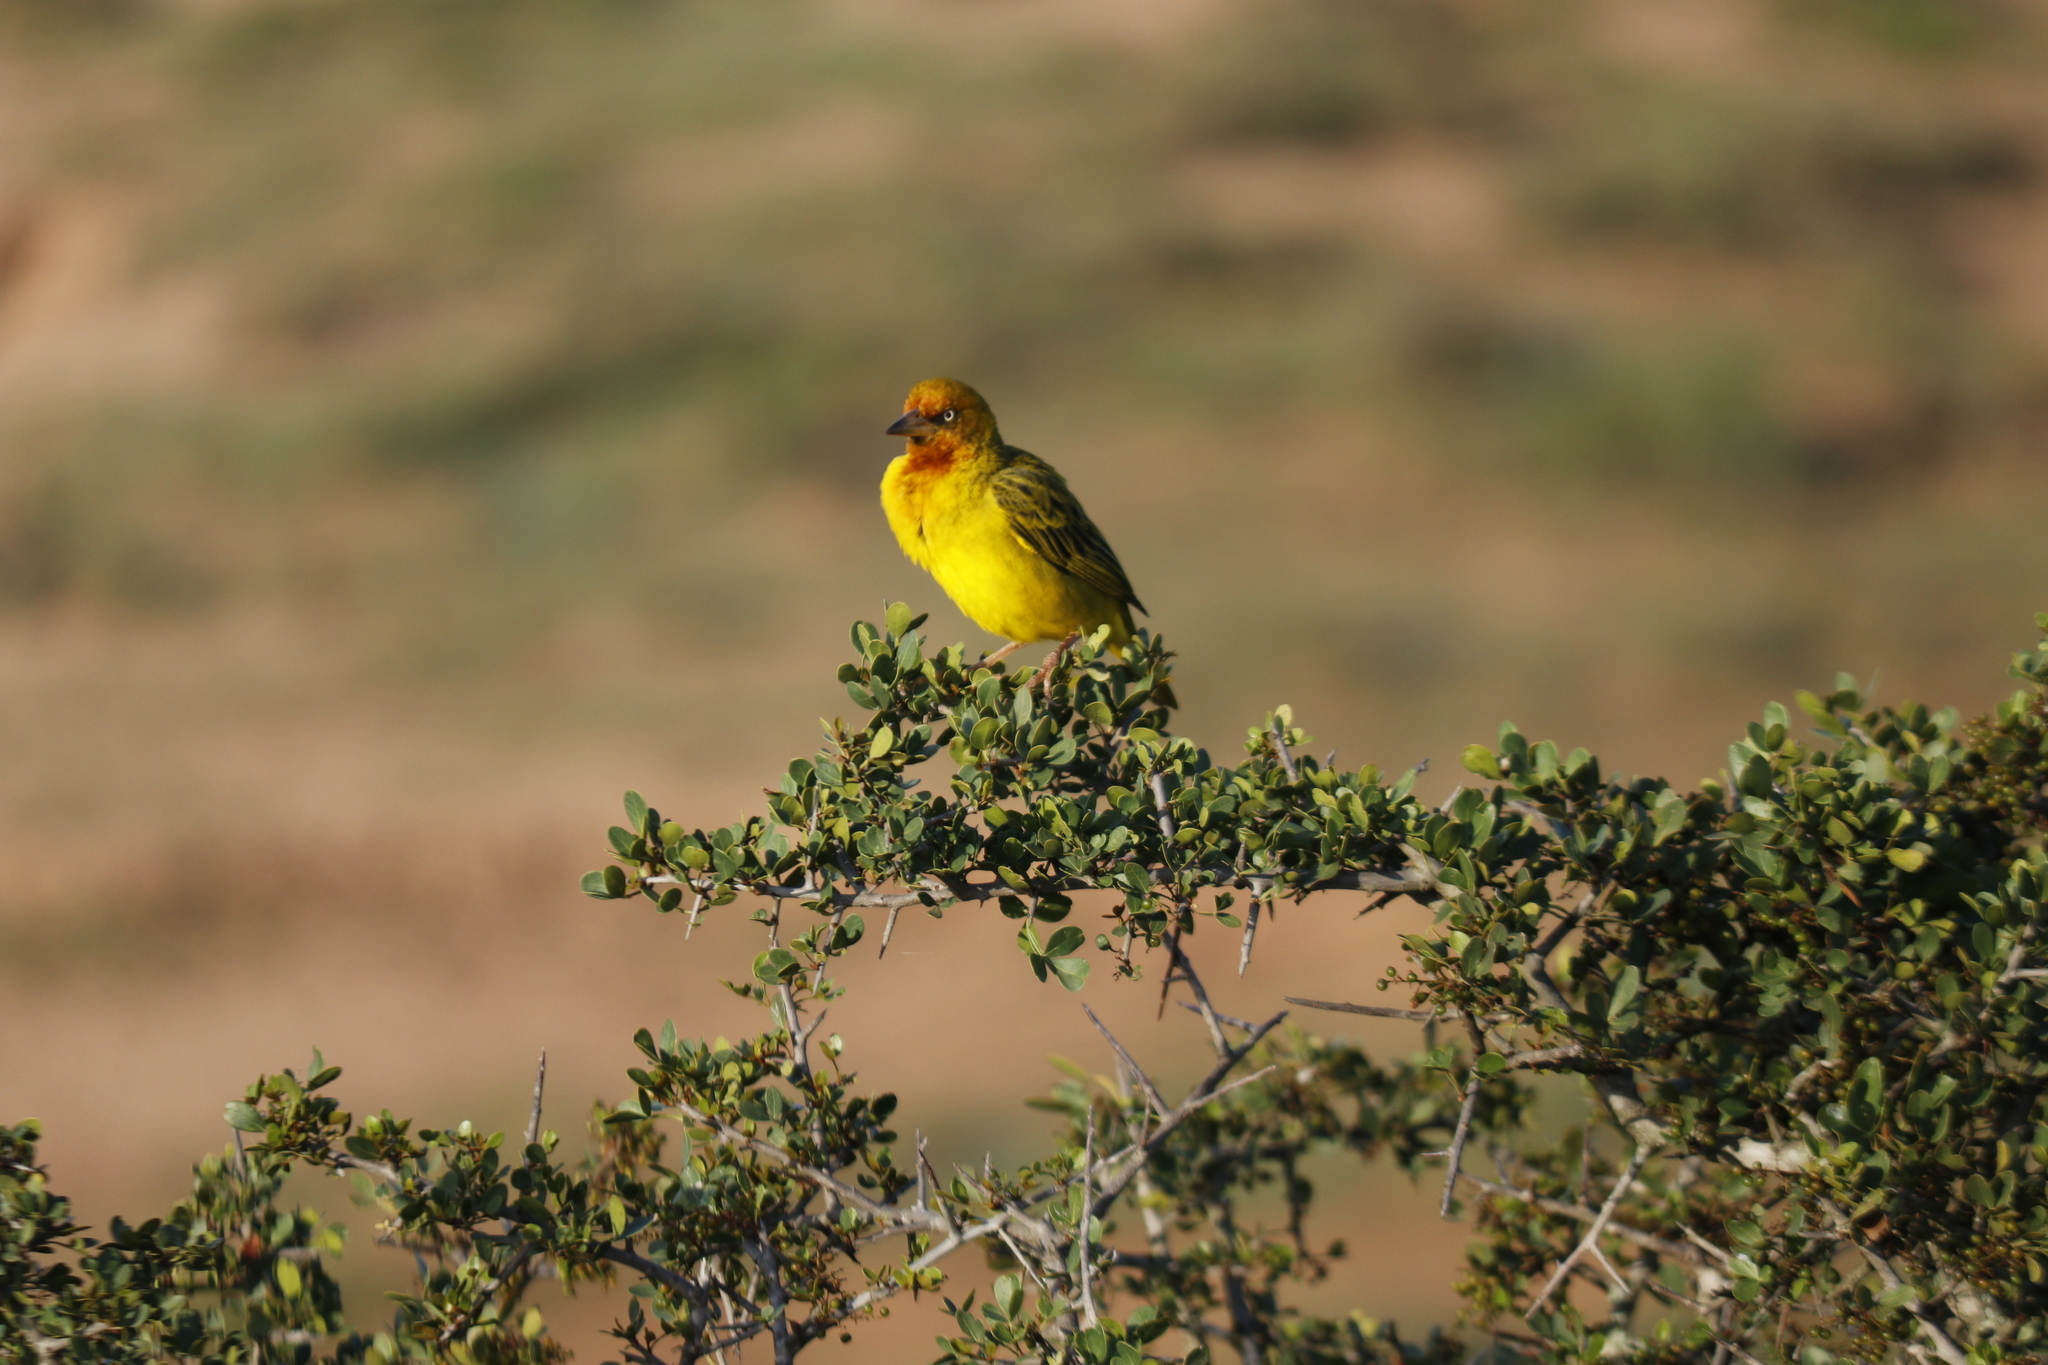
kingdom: Animalia
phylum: Chordata
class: Aves
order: Passeriformes
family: Ploceidae
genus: Ploceus
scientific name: Ploceus capensis
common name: Cape weaver
